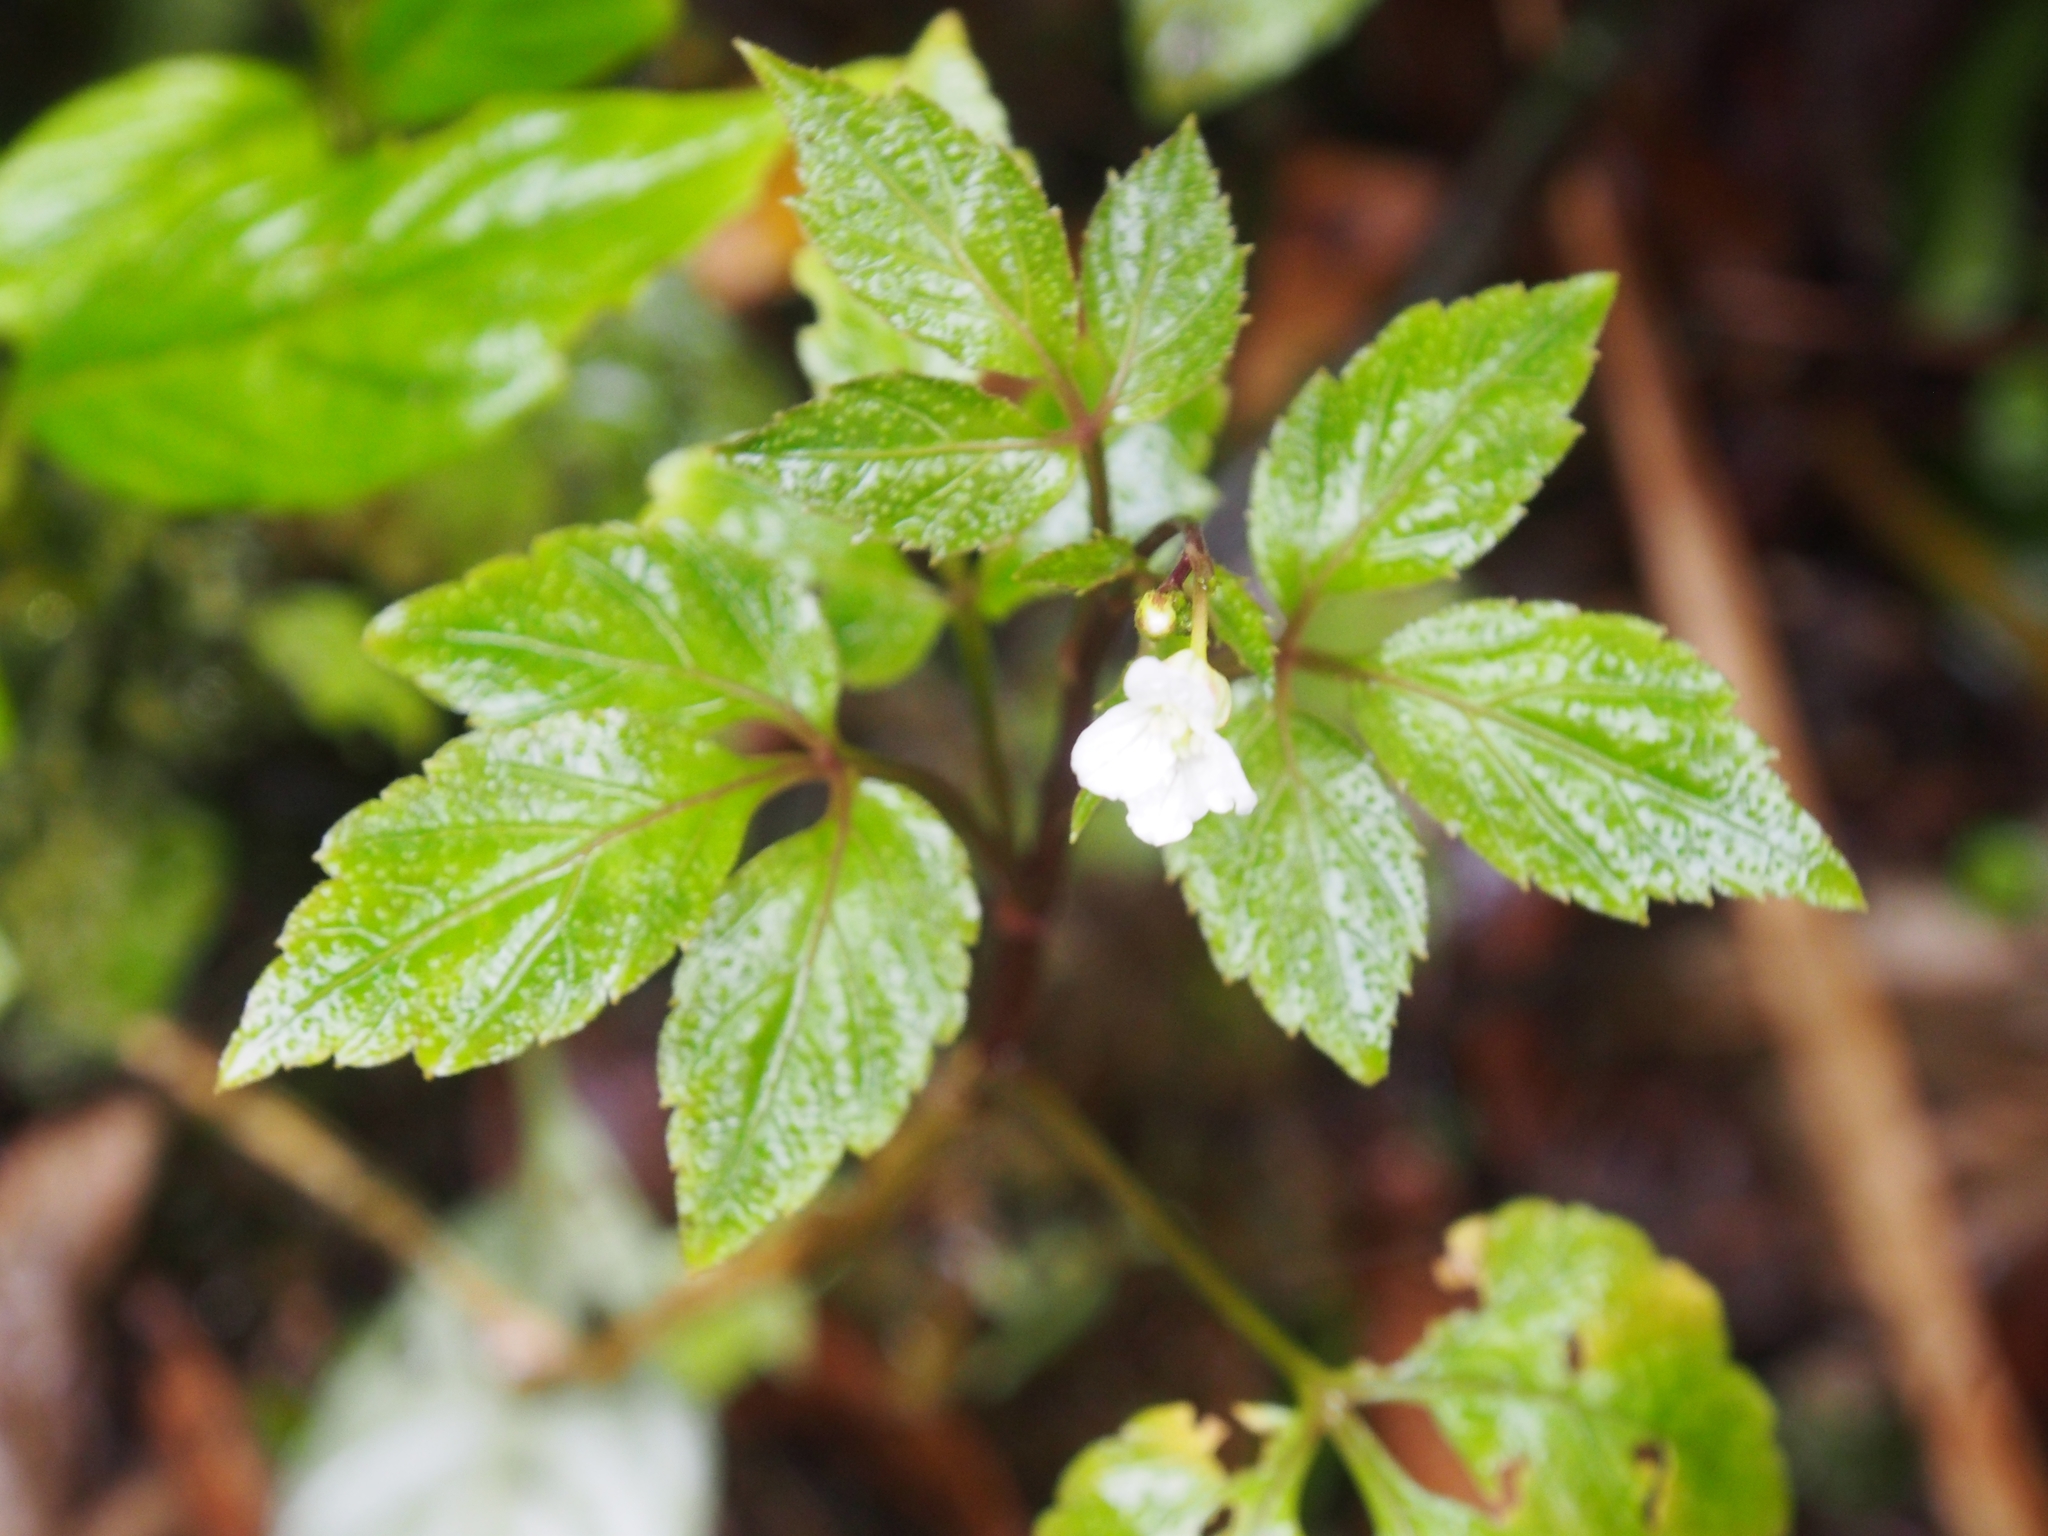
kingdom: Plantae
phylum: Tracheophyta
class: Magnoliopsida
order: Brassicales
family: Brassicaceae
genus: Cardamine
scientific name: Cardamine fulcrata
